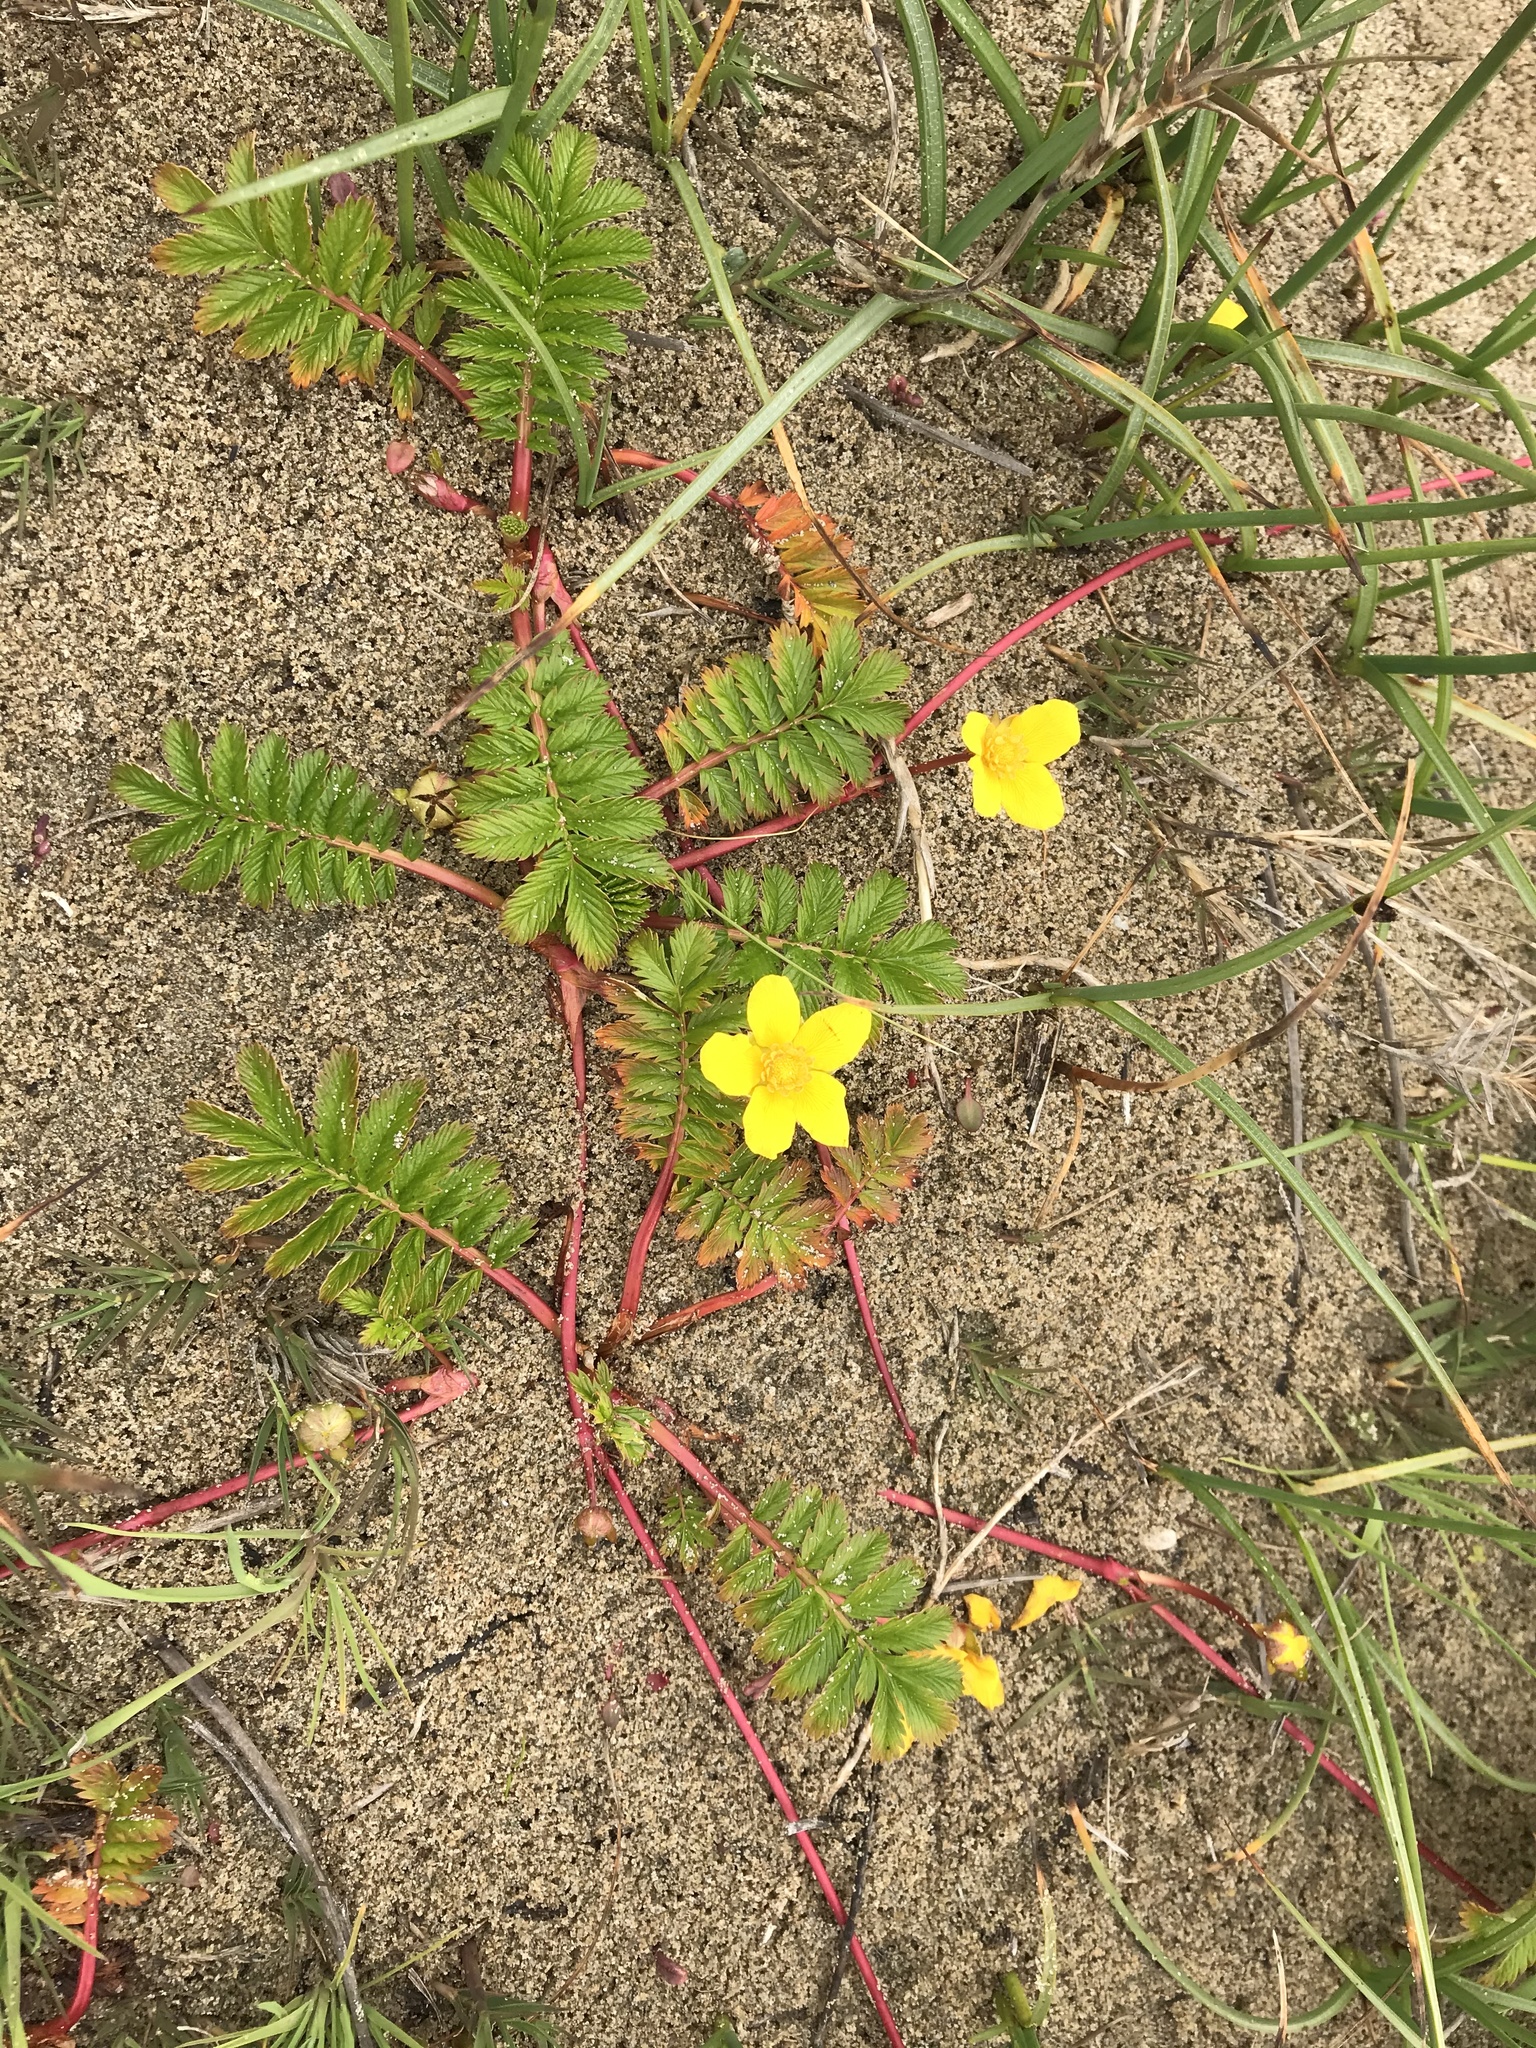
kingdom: Plantae
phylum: Tracheophyta
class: Magnoliopsida
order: Rosales
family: Rosaceae
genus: Argentina
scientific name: Argentina anserina
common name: Common silverweed
